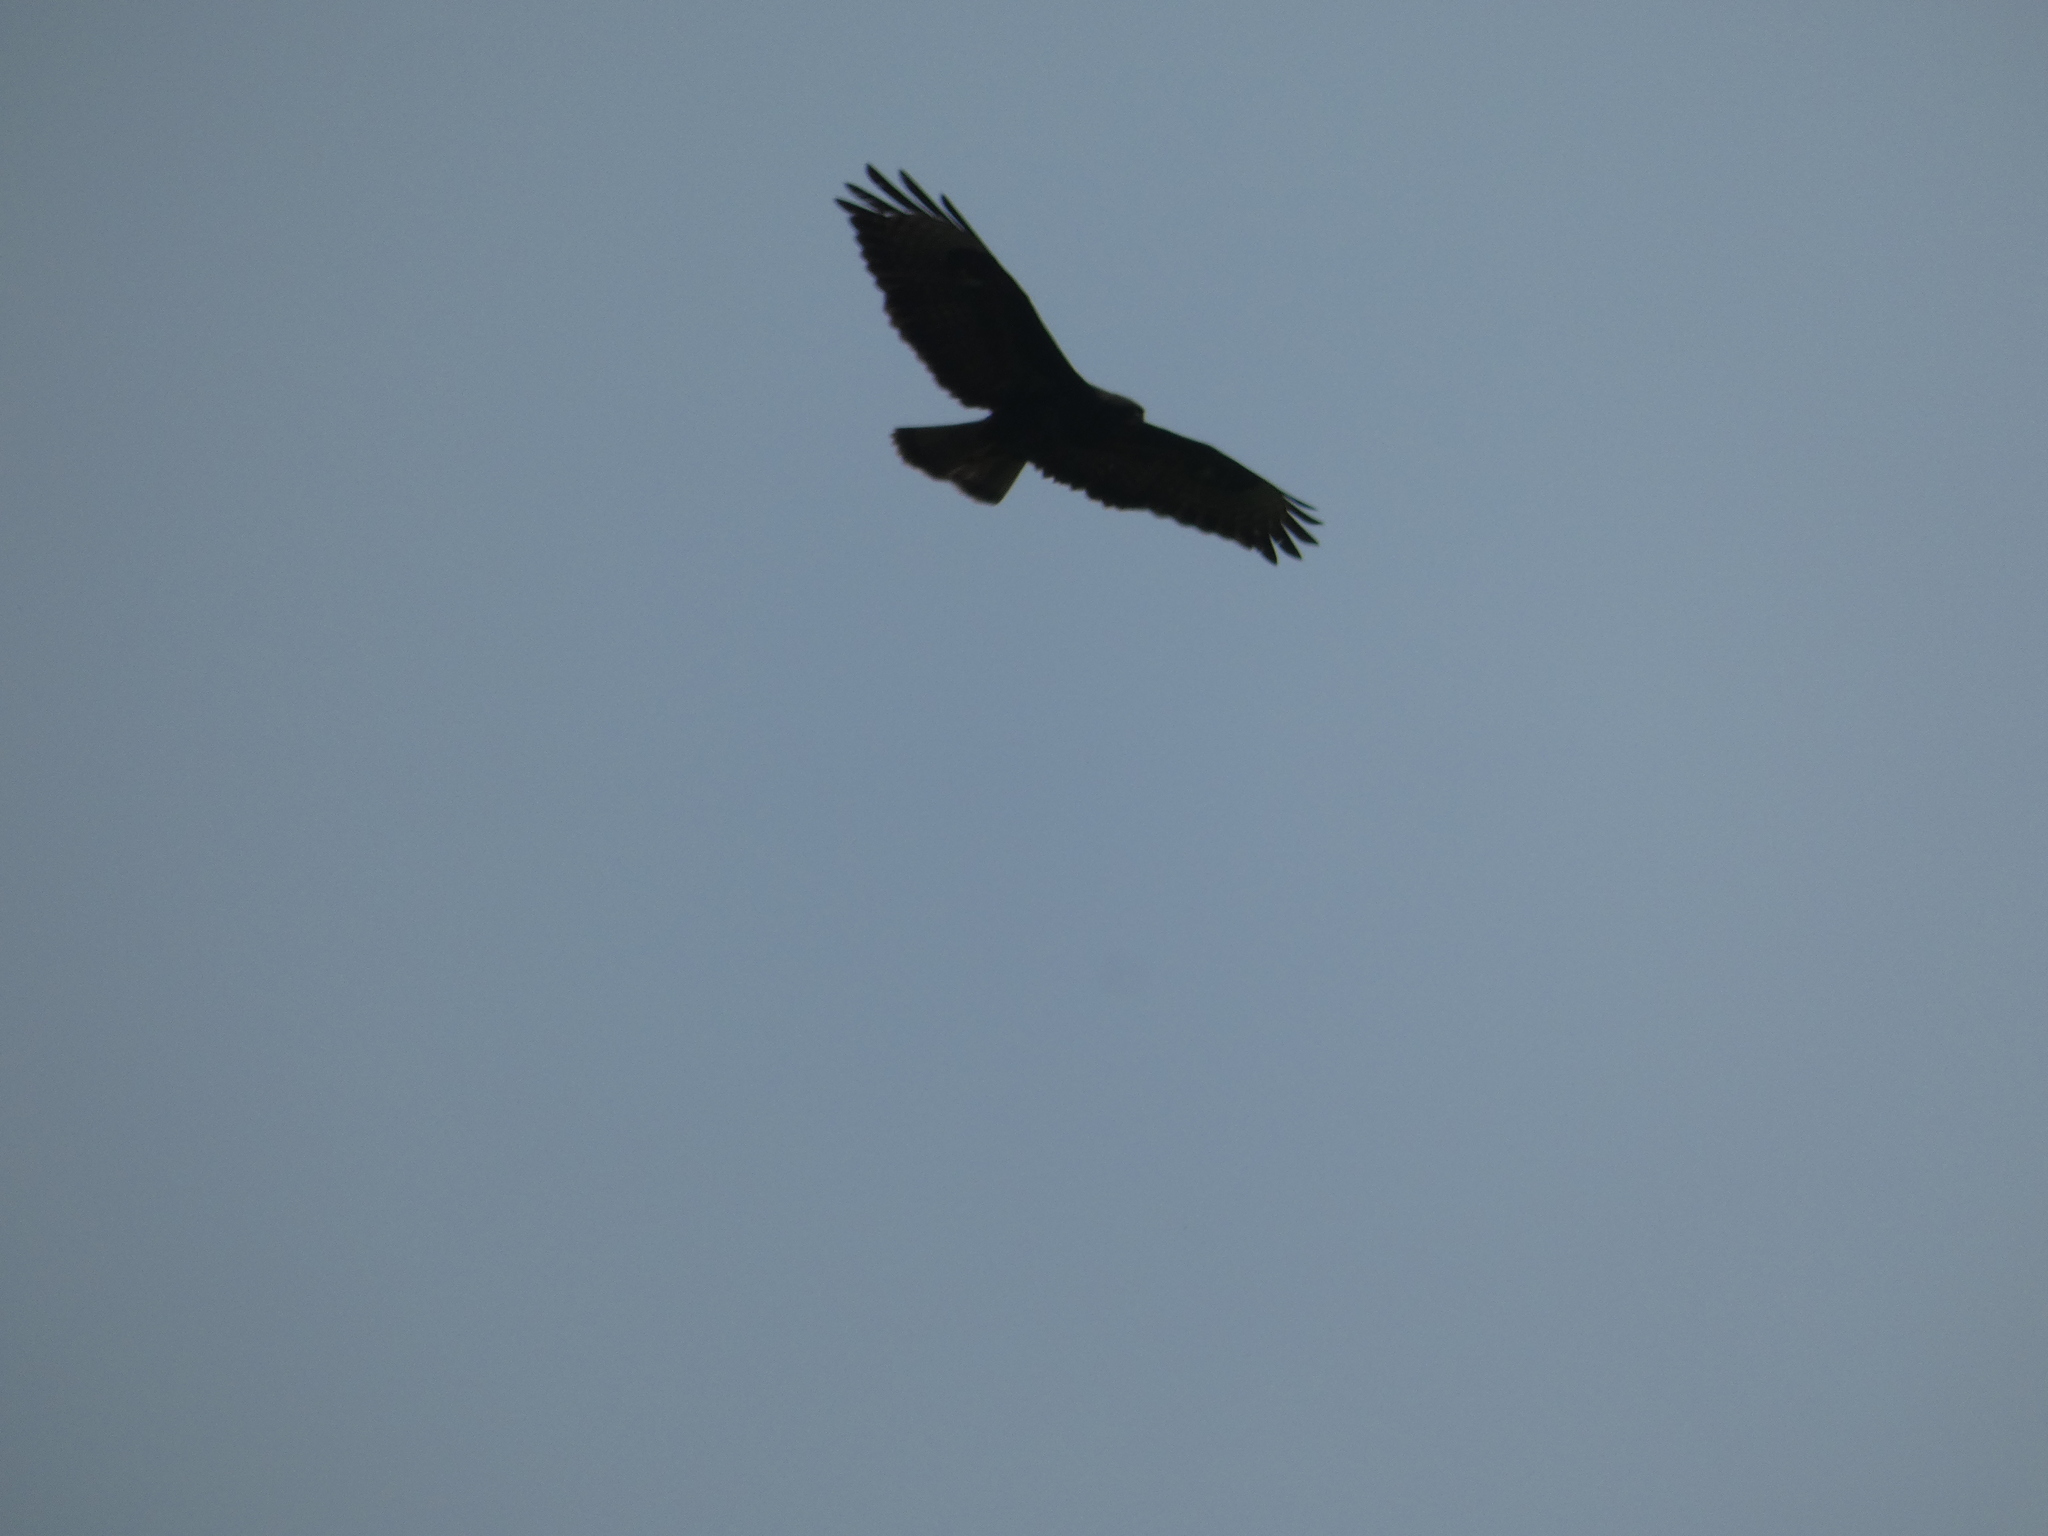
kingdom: Animalia
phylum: Chordata
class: Aves
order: Accipitriformes
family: Accipitridae
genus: Buteo
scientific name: Buteo buteo
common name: Common buzzard
